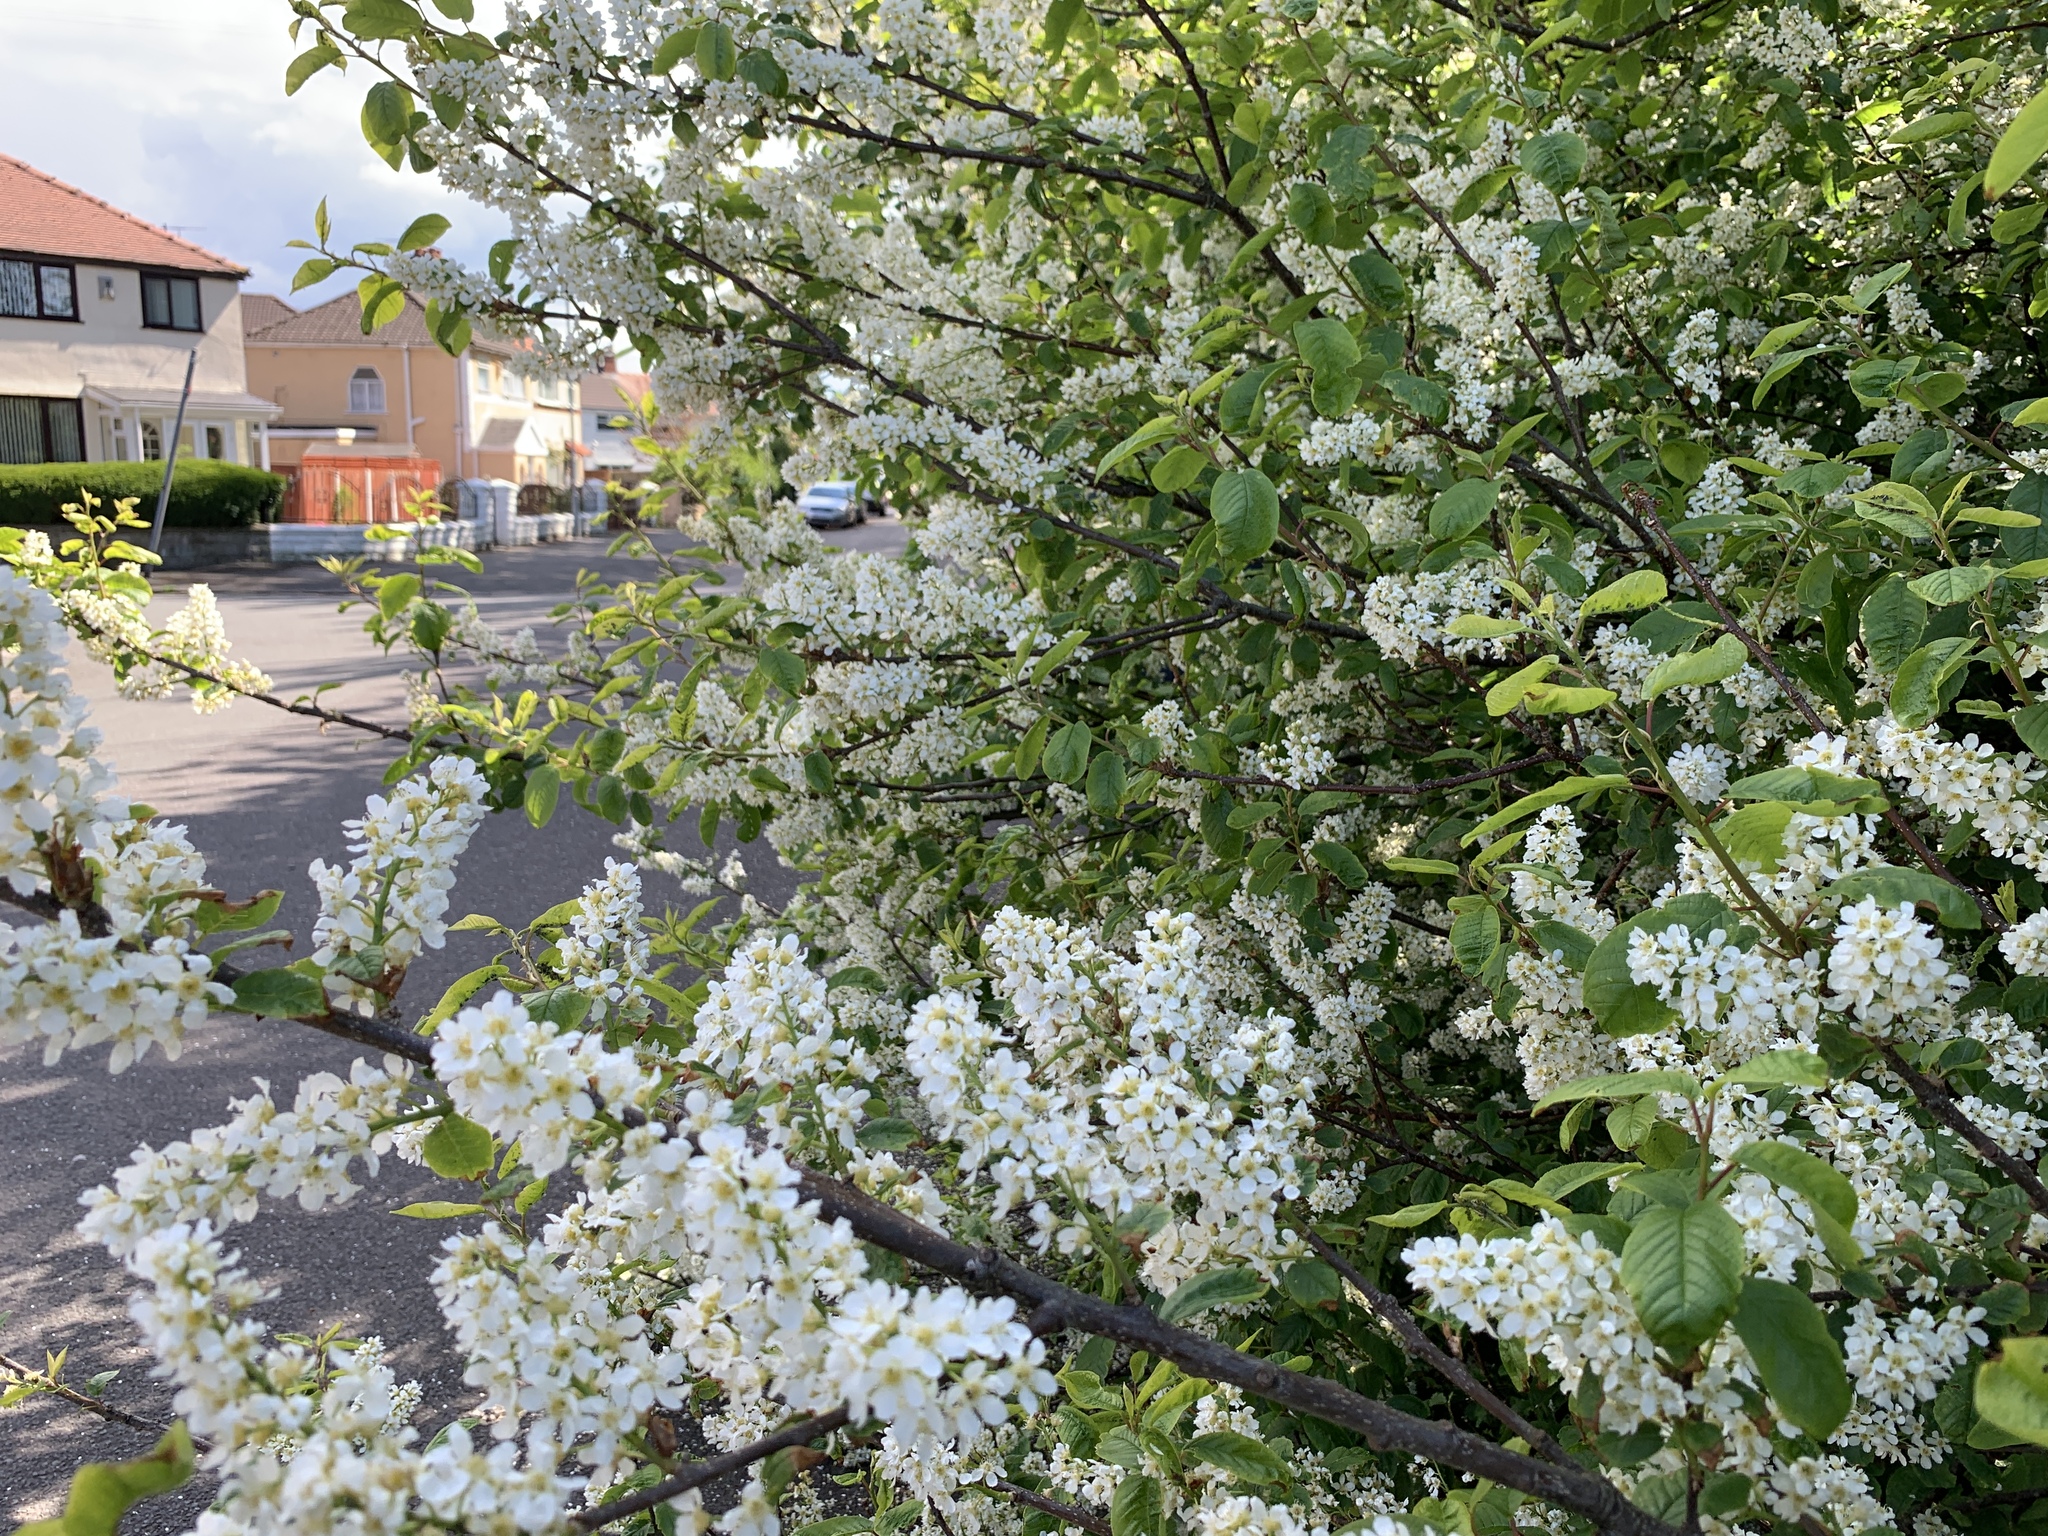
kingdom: Plantae
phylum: Tracheophyta
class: Magnoliopsida
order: Rosales
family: Rosaceae
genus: Prunus
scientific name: Prunus padus
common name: Bird cherry
